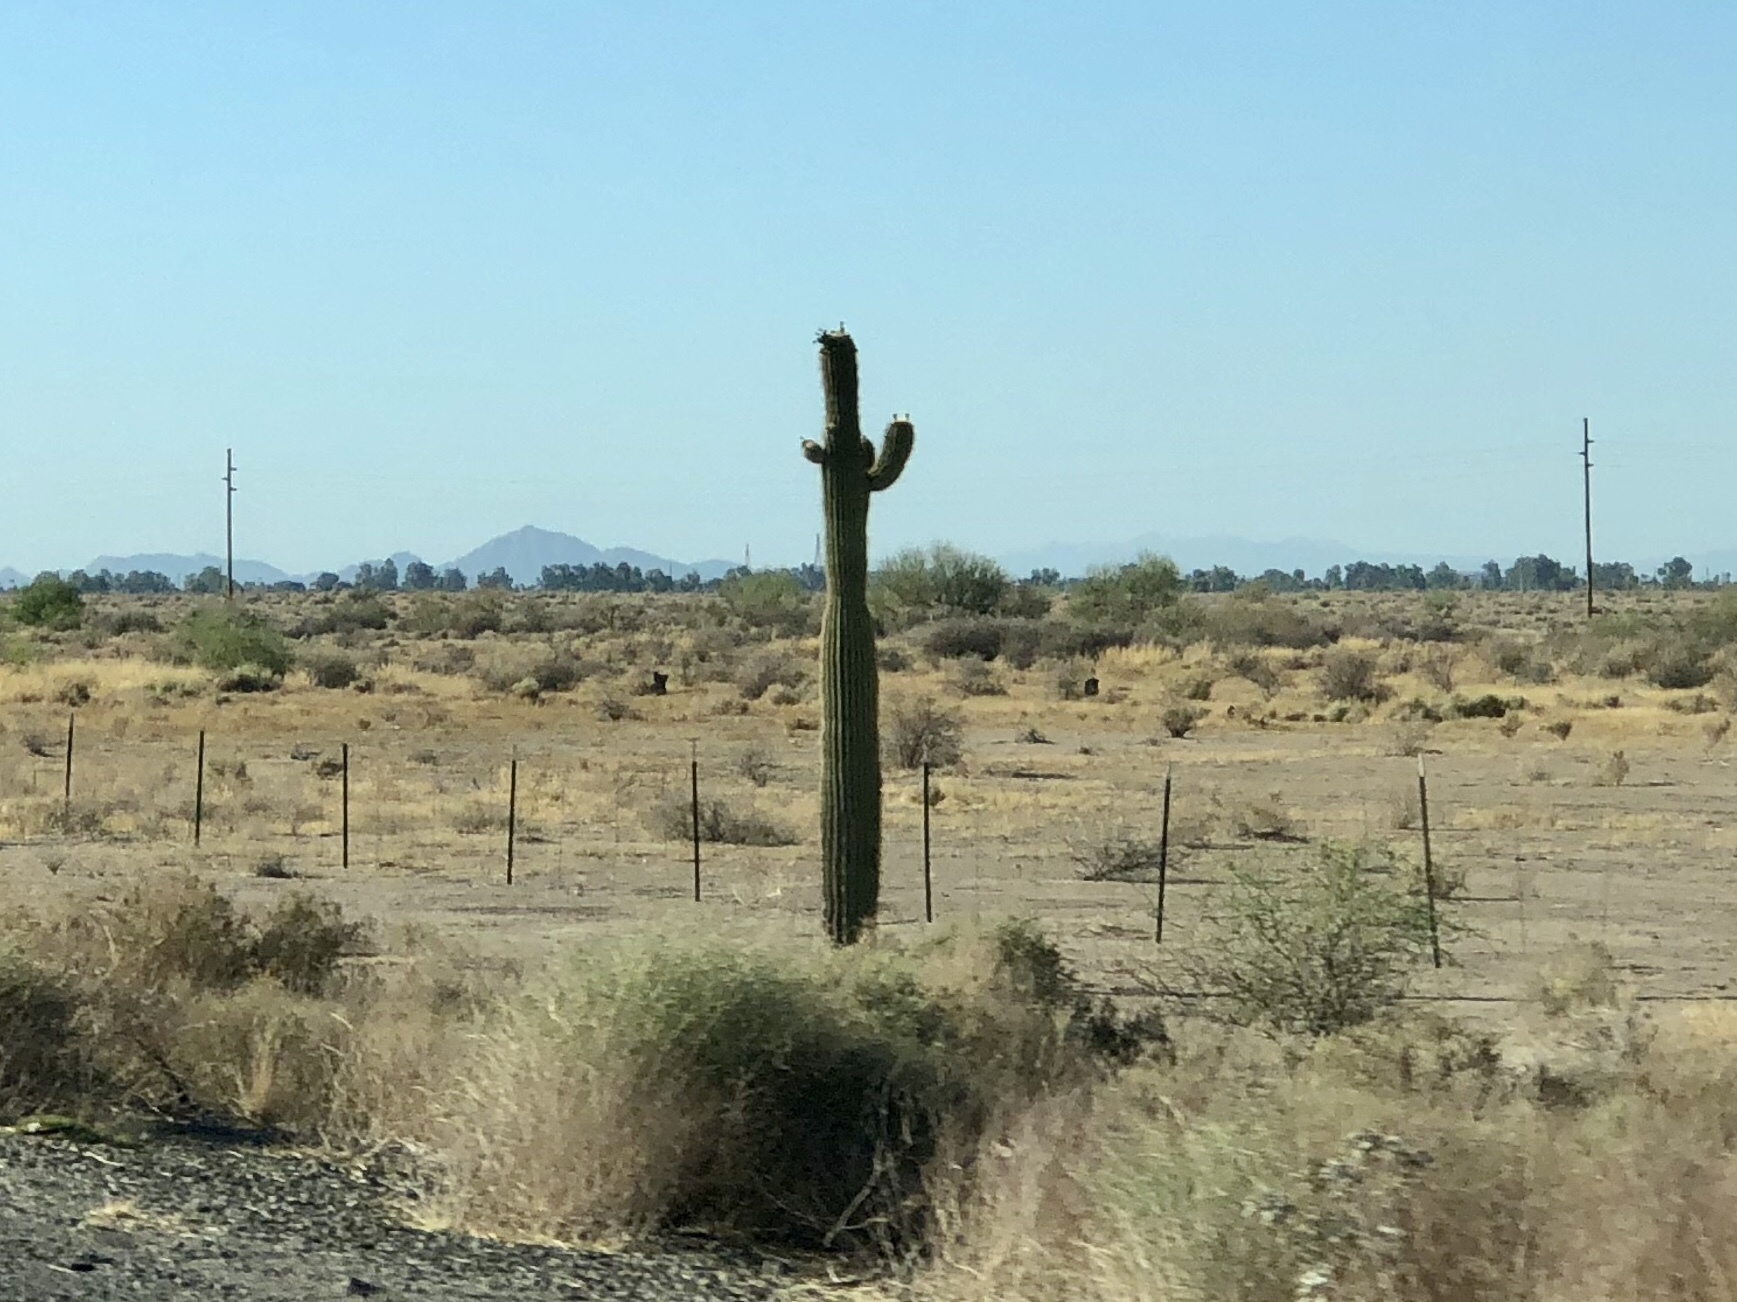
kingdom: Plantae
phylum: Tracheophyta
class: Magnoliopsida
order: Caryophyllales
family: Cactaceae
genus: Carnegiea
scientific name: Carnegiea gigantea
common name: Saguaro
